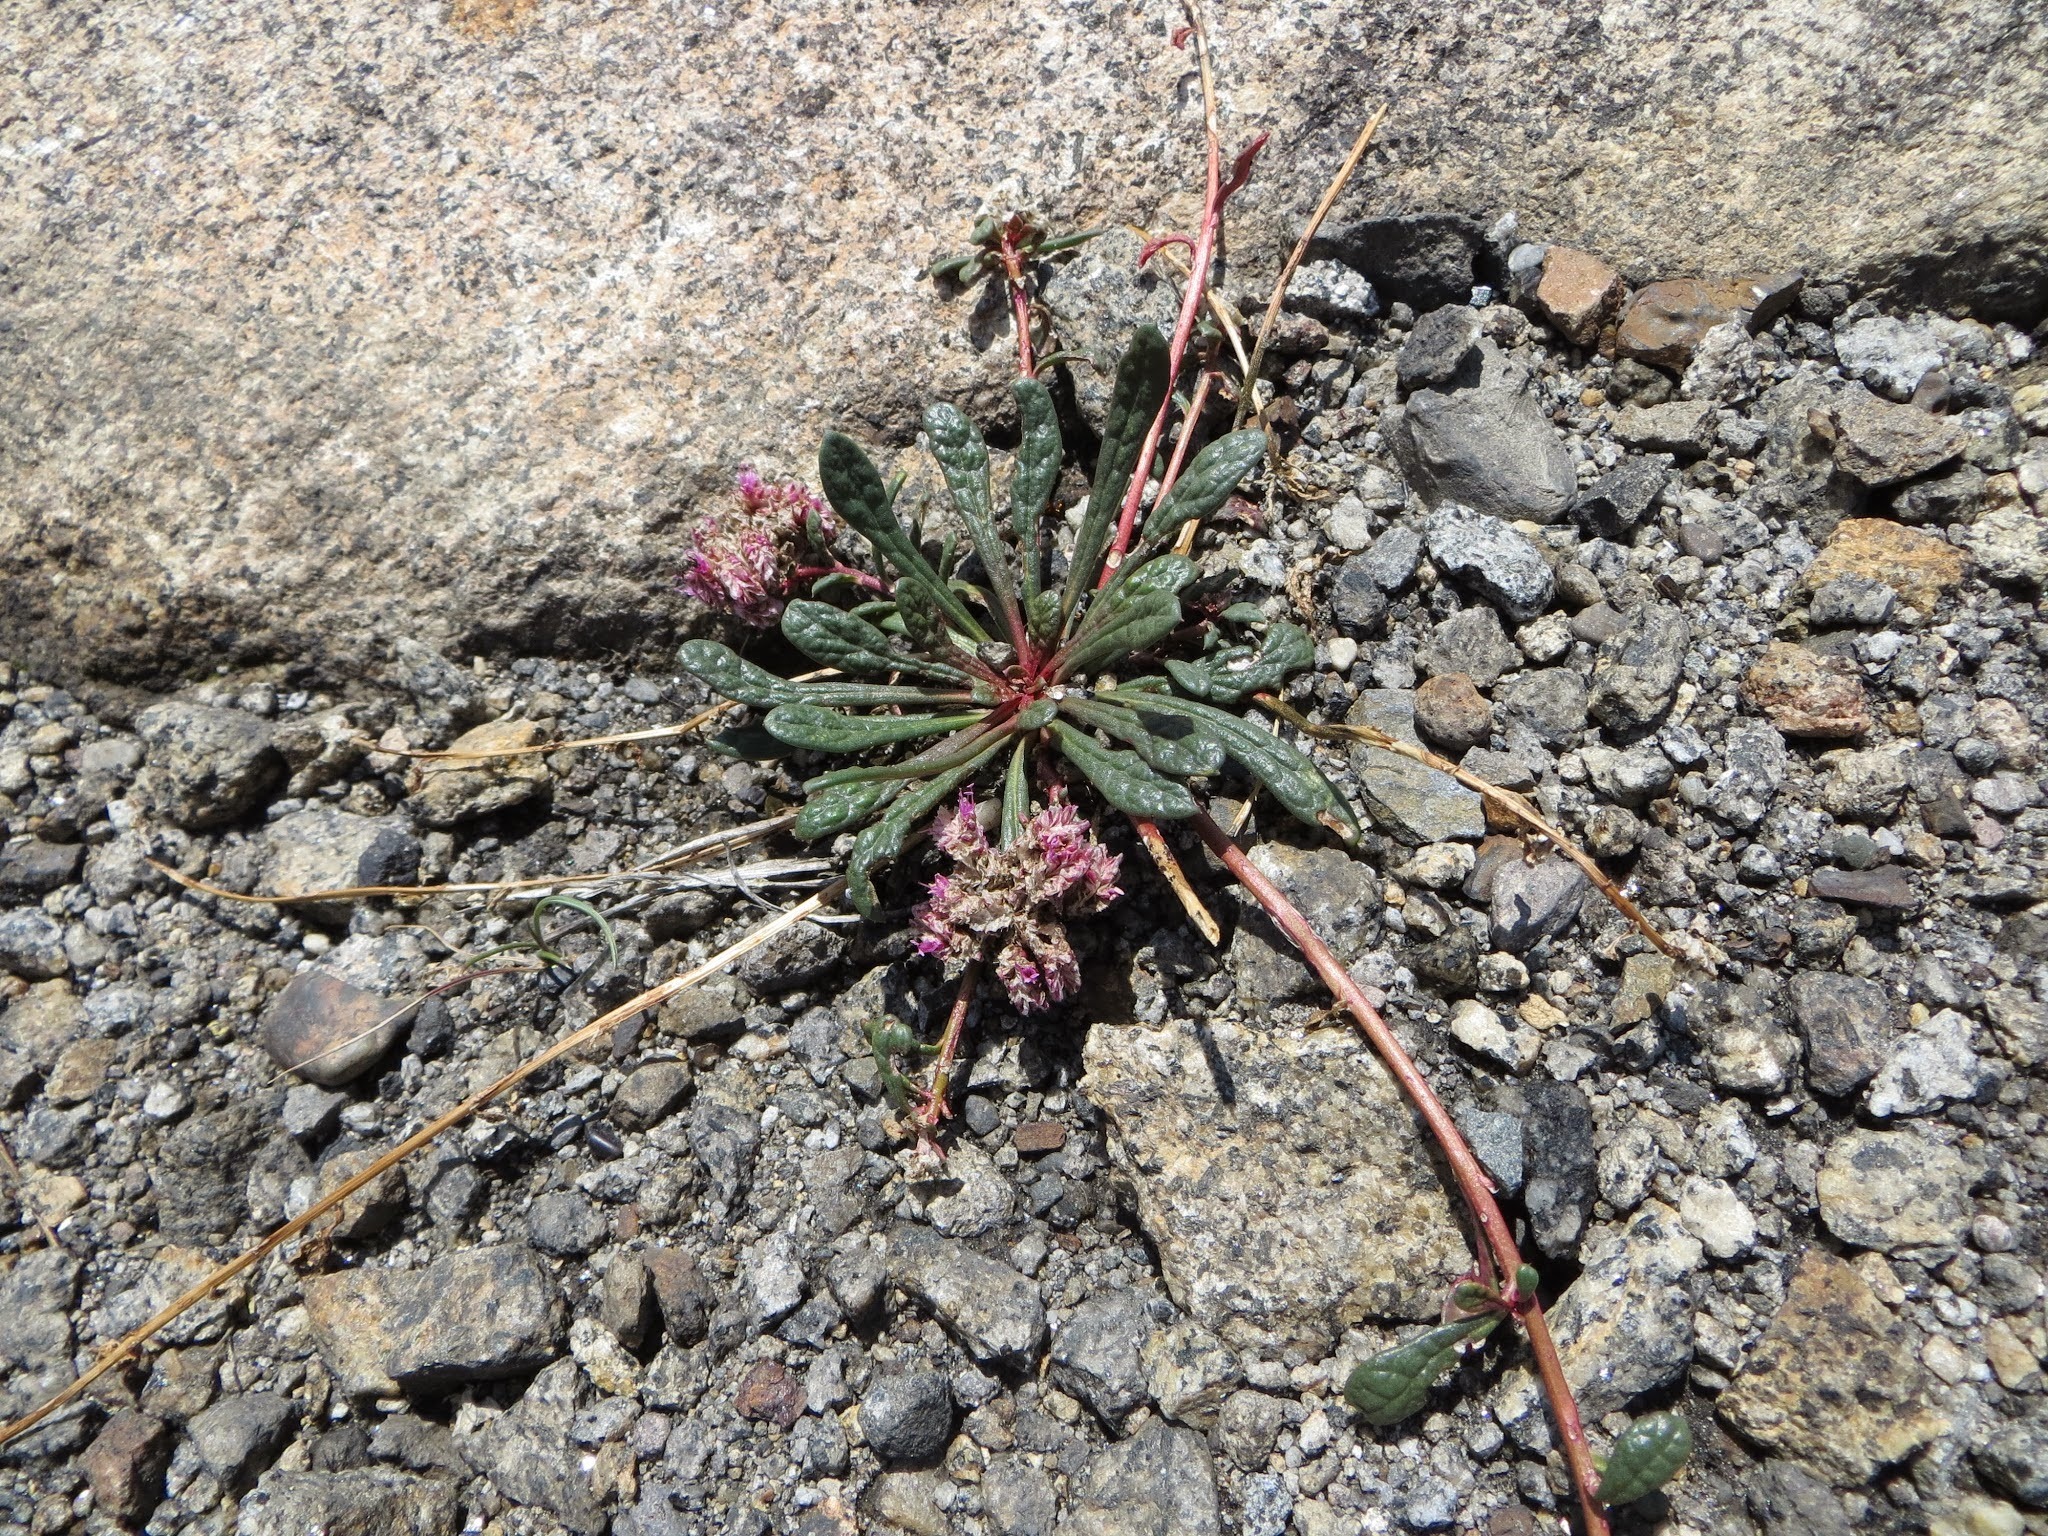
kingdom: Plantae
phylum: Tracheophyta
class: Magnoliopsida
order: Caryophyllales
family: Montiaceae
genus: Calyptridium
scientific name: Calyptridium monospermum
